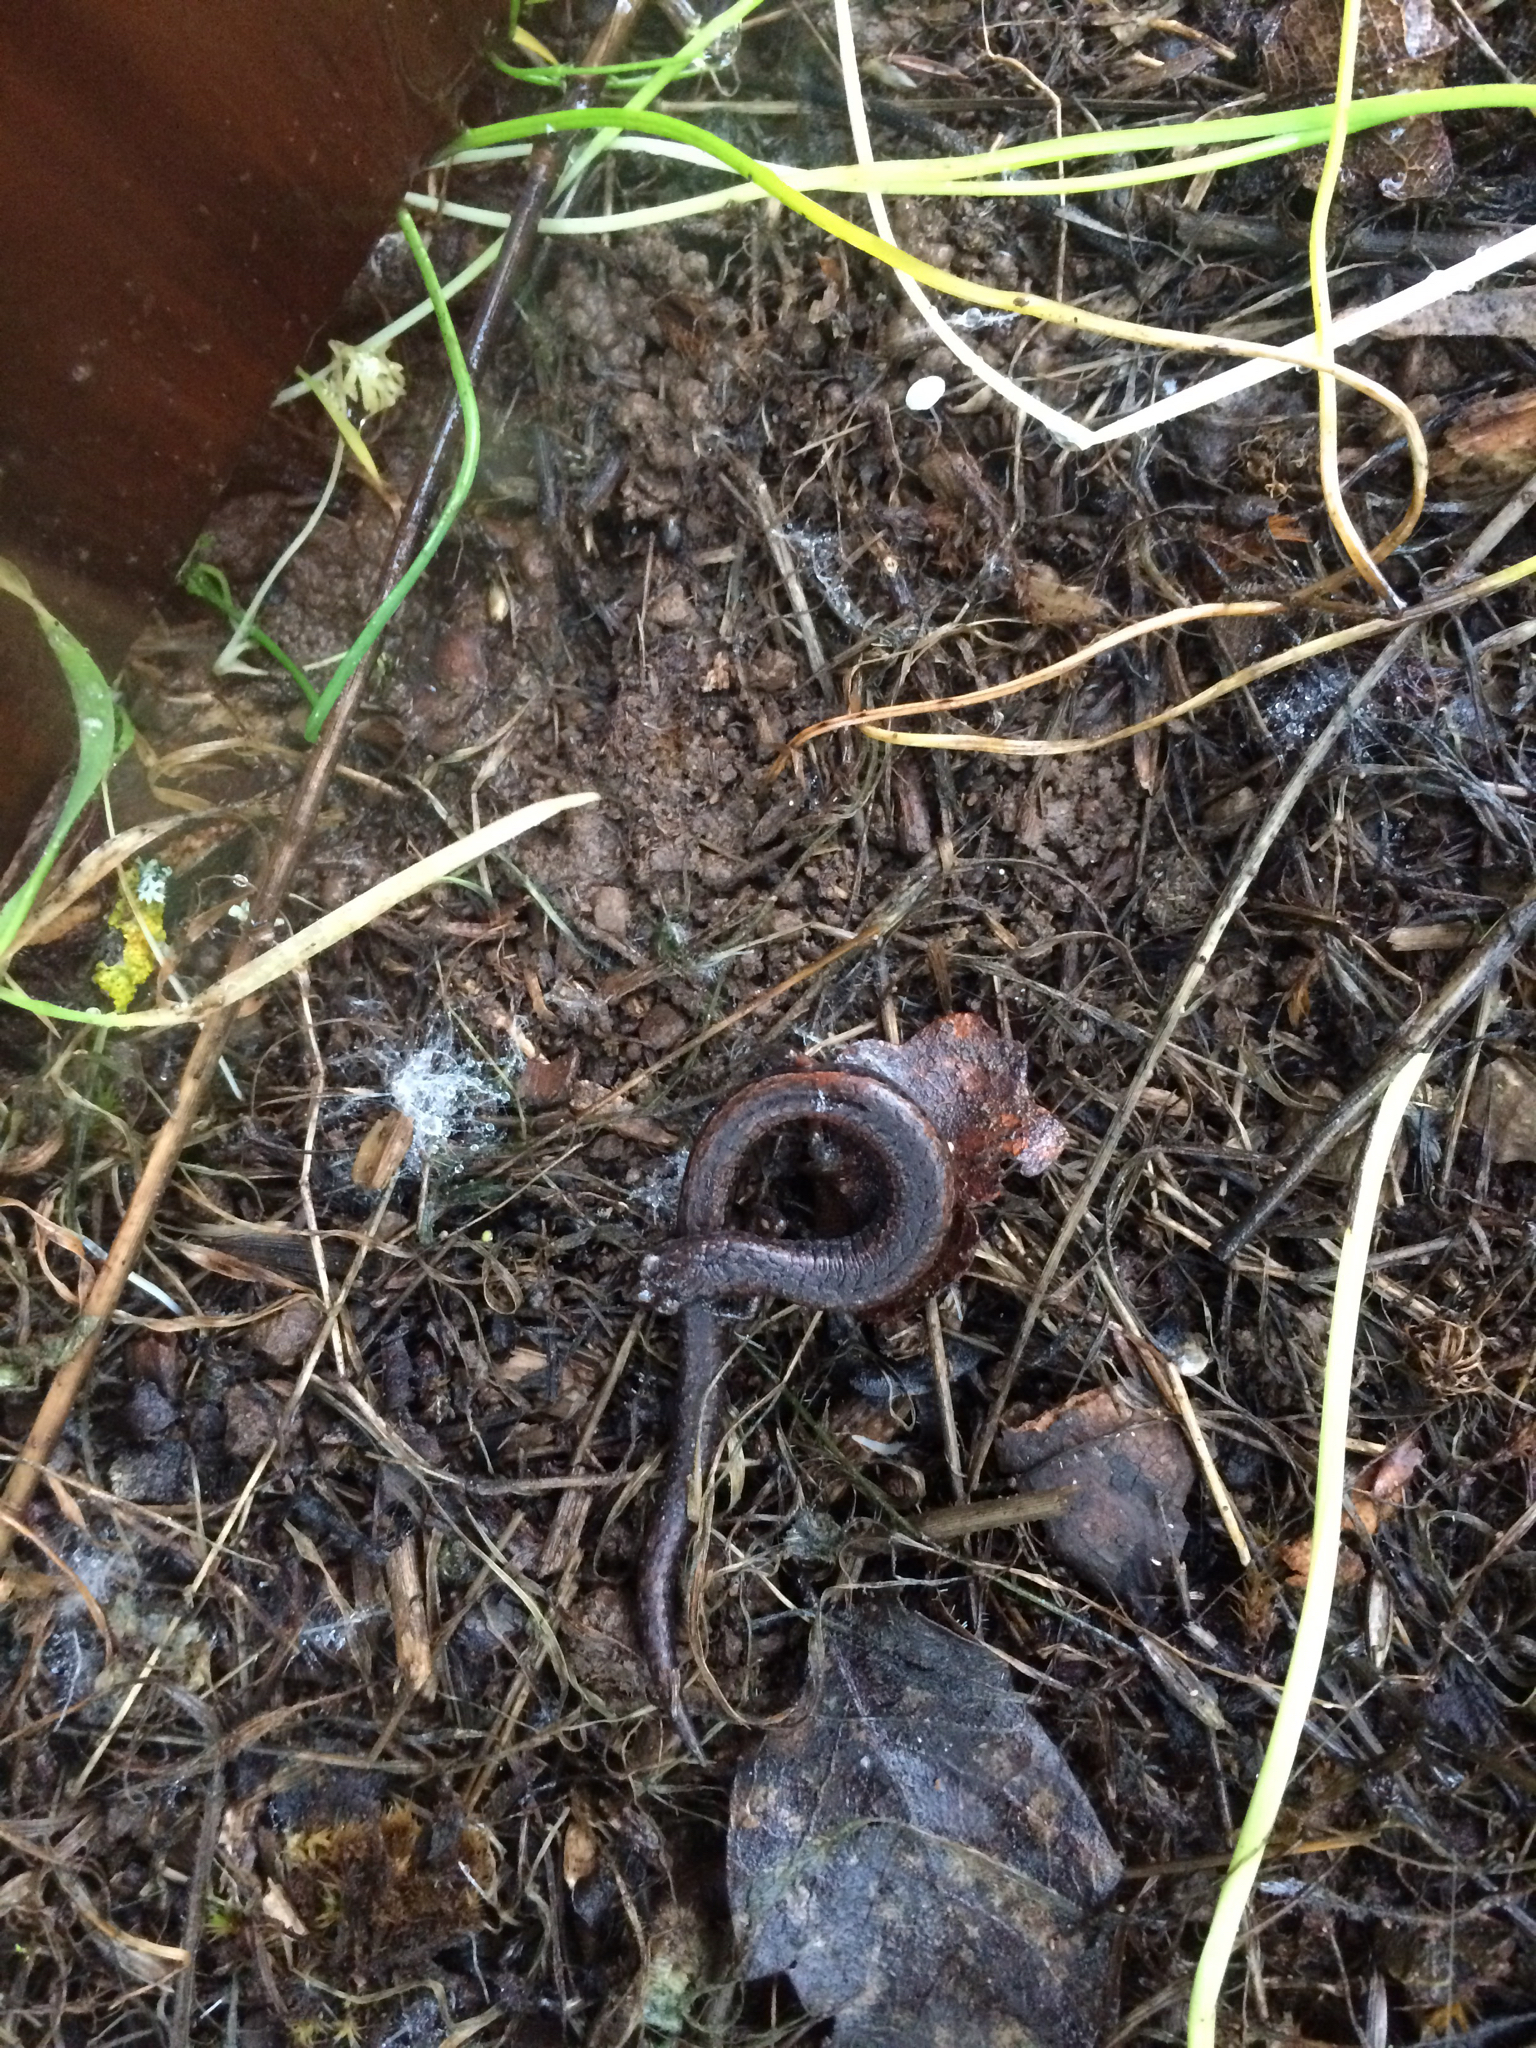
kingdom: Animalia
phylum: Chordata
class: Amphibia
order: Caudata
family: Plethodontidae
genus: Batrachoseps
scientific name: Batrachoseps attenuatus
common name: California slender salamander
